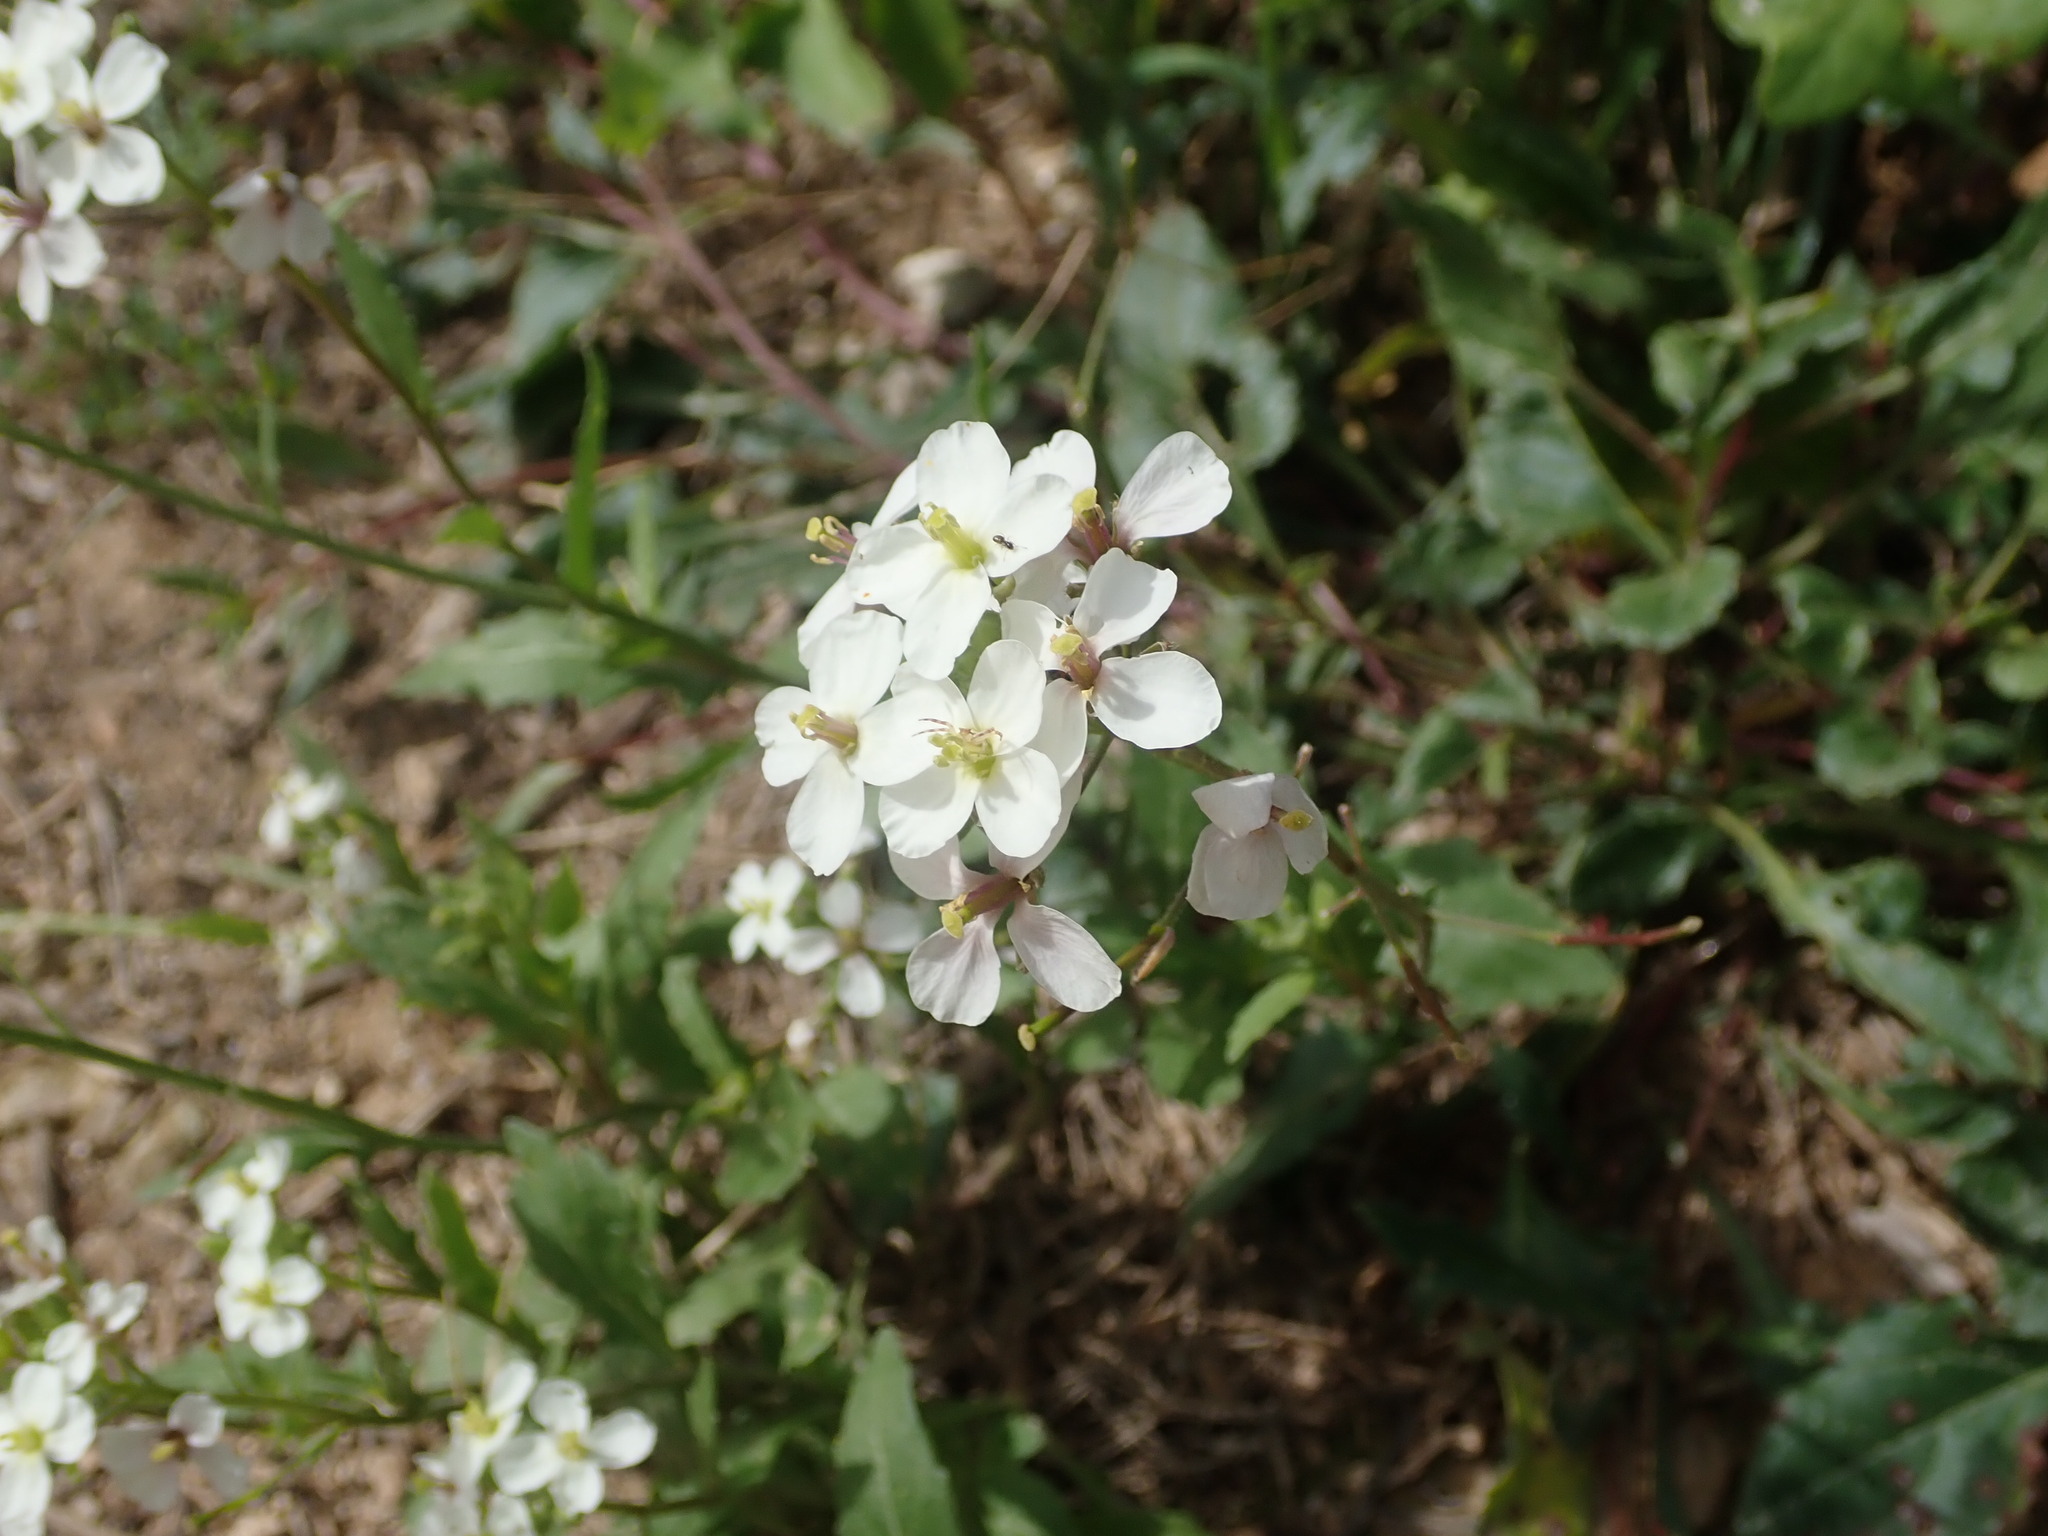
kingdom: Plantae
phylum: Tracheophyta
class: Magnoliopsida
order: Brassicales
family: Brassicaceae
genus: Diplotaxis
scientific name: Diplotaxis erucoides
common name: White rocket
